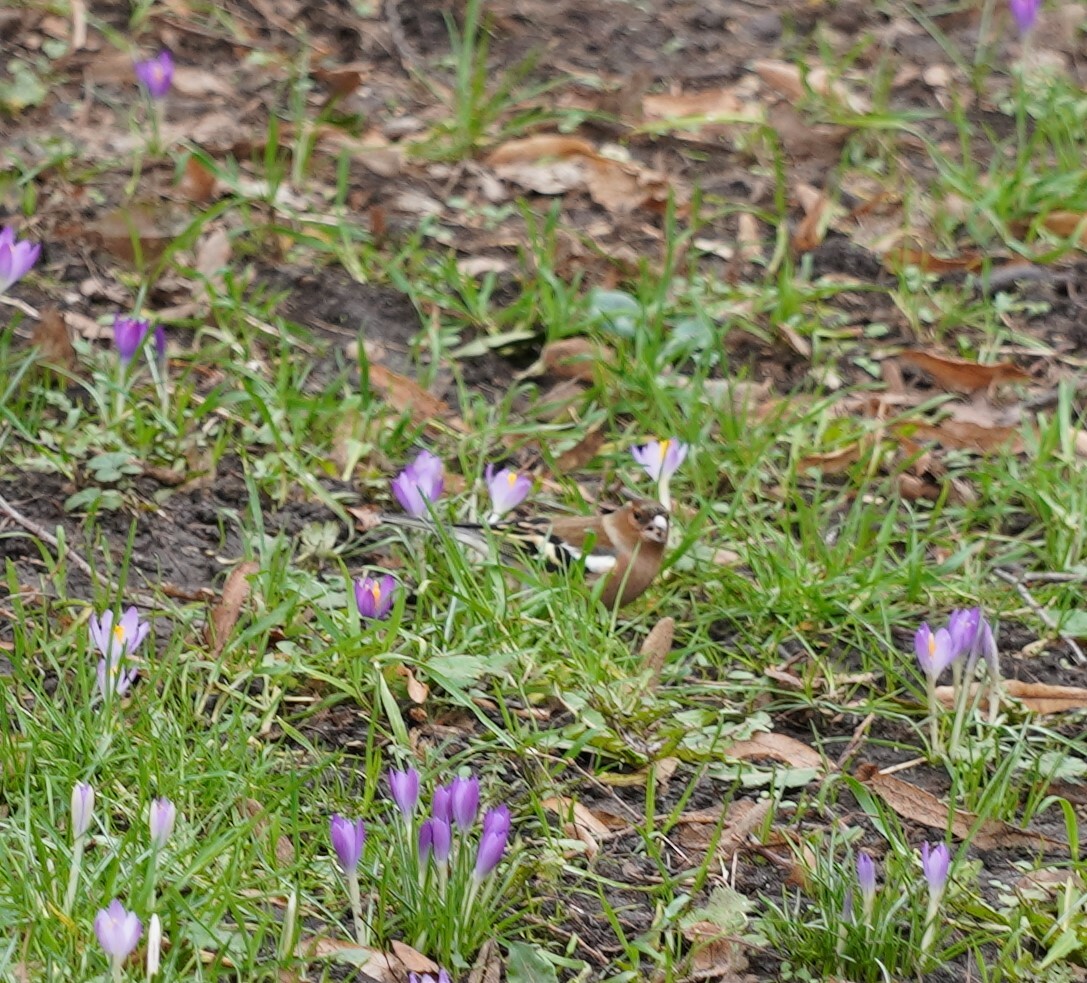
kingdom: Animalia
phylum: Chordata
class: Aves
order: Passeriformes
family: Fringillidae
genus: Fringilla
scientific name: Fringilla coelebs
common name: Common chaffinch
